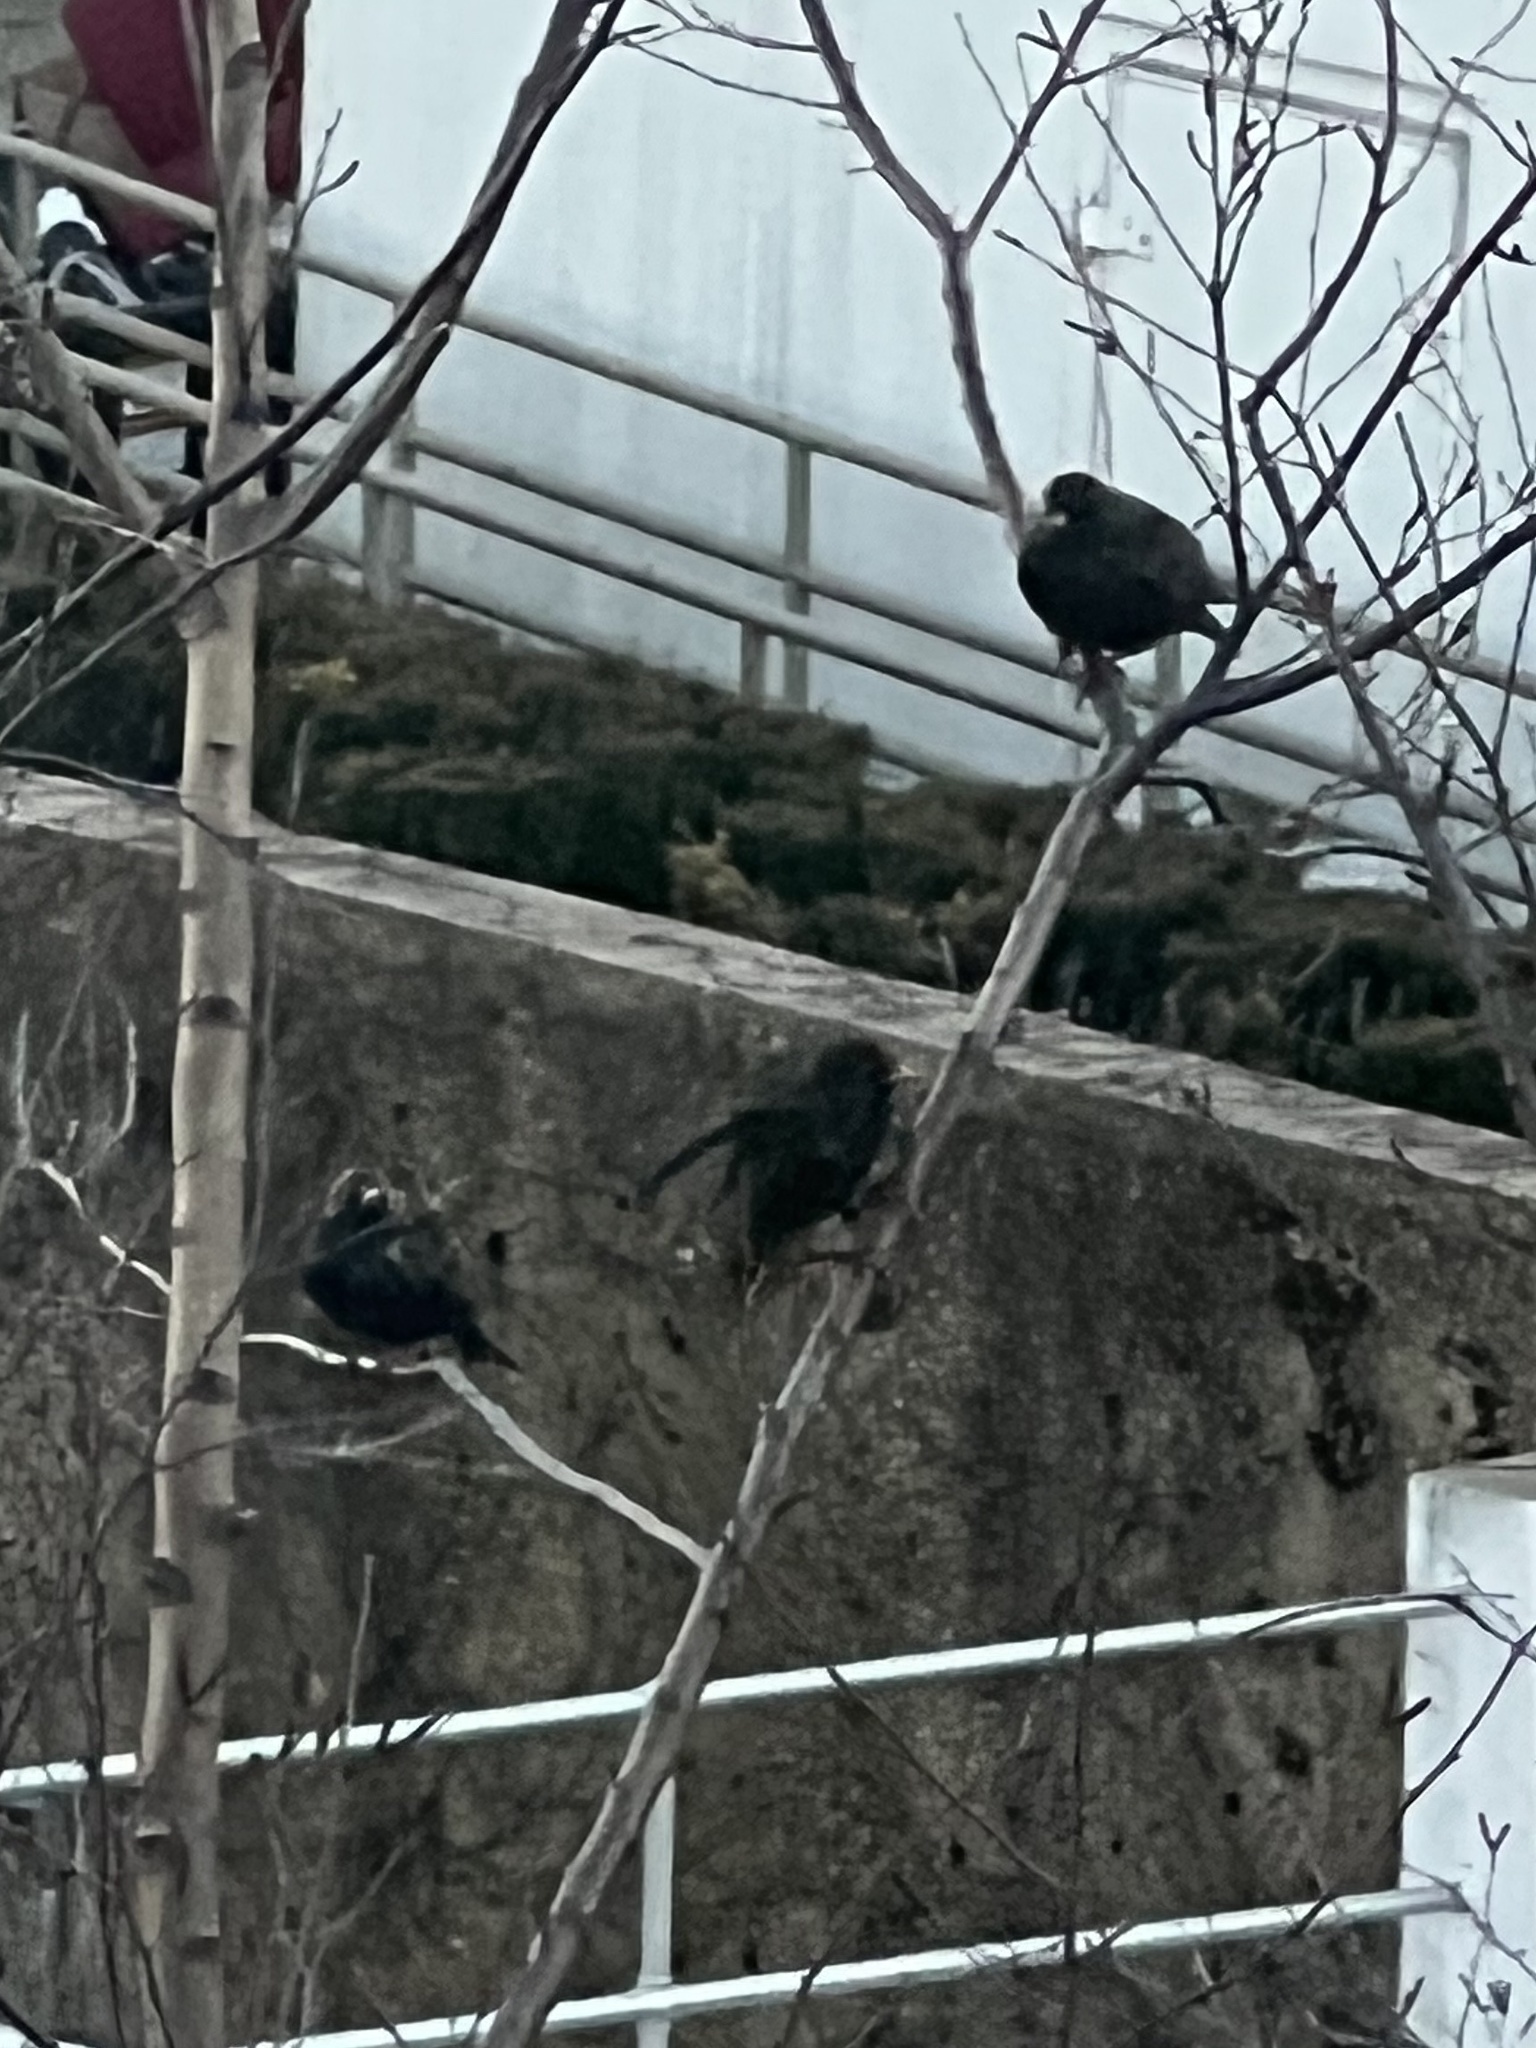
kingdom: Animalia
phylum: Chordata
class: Aves
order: Passeriformes
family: Sturnidae
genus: Sturnus
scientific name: Sturnus vulgaris
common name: Common starling
